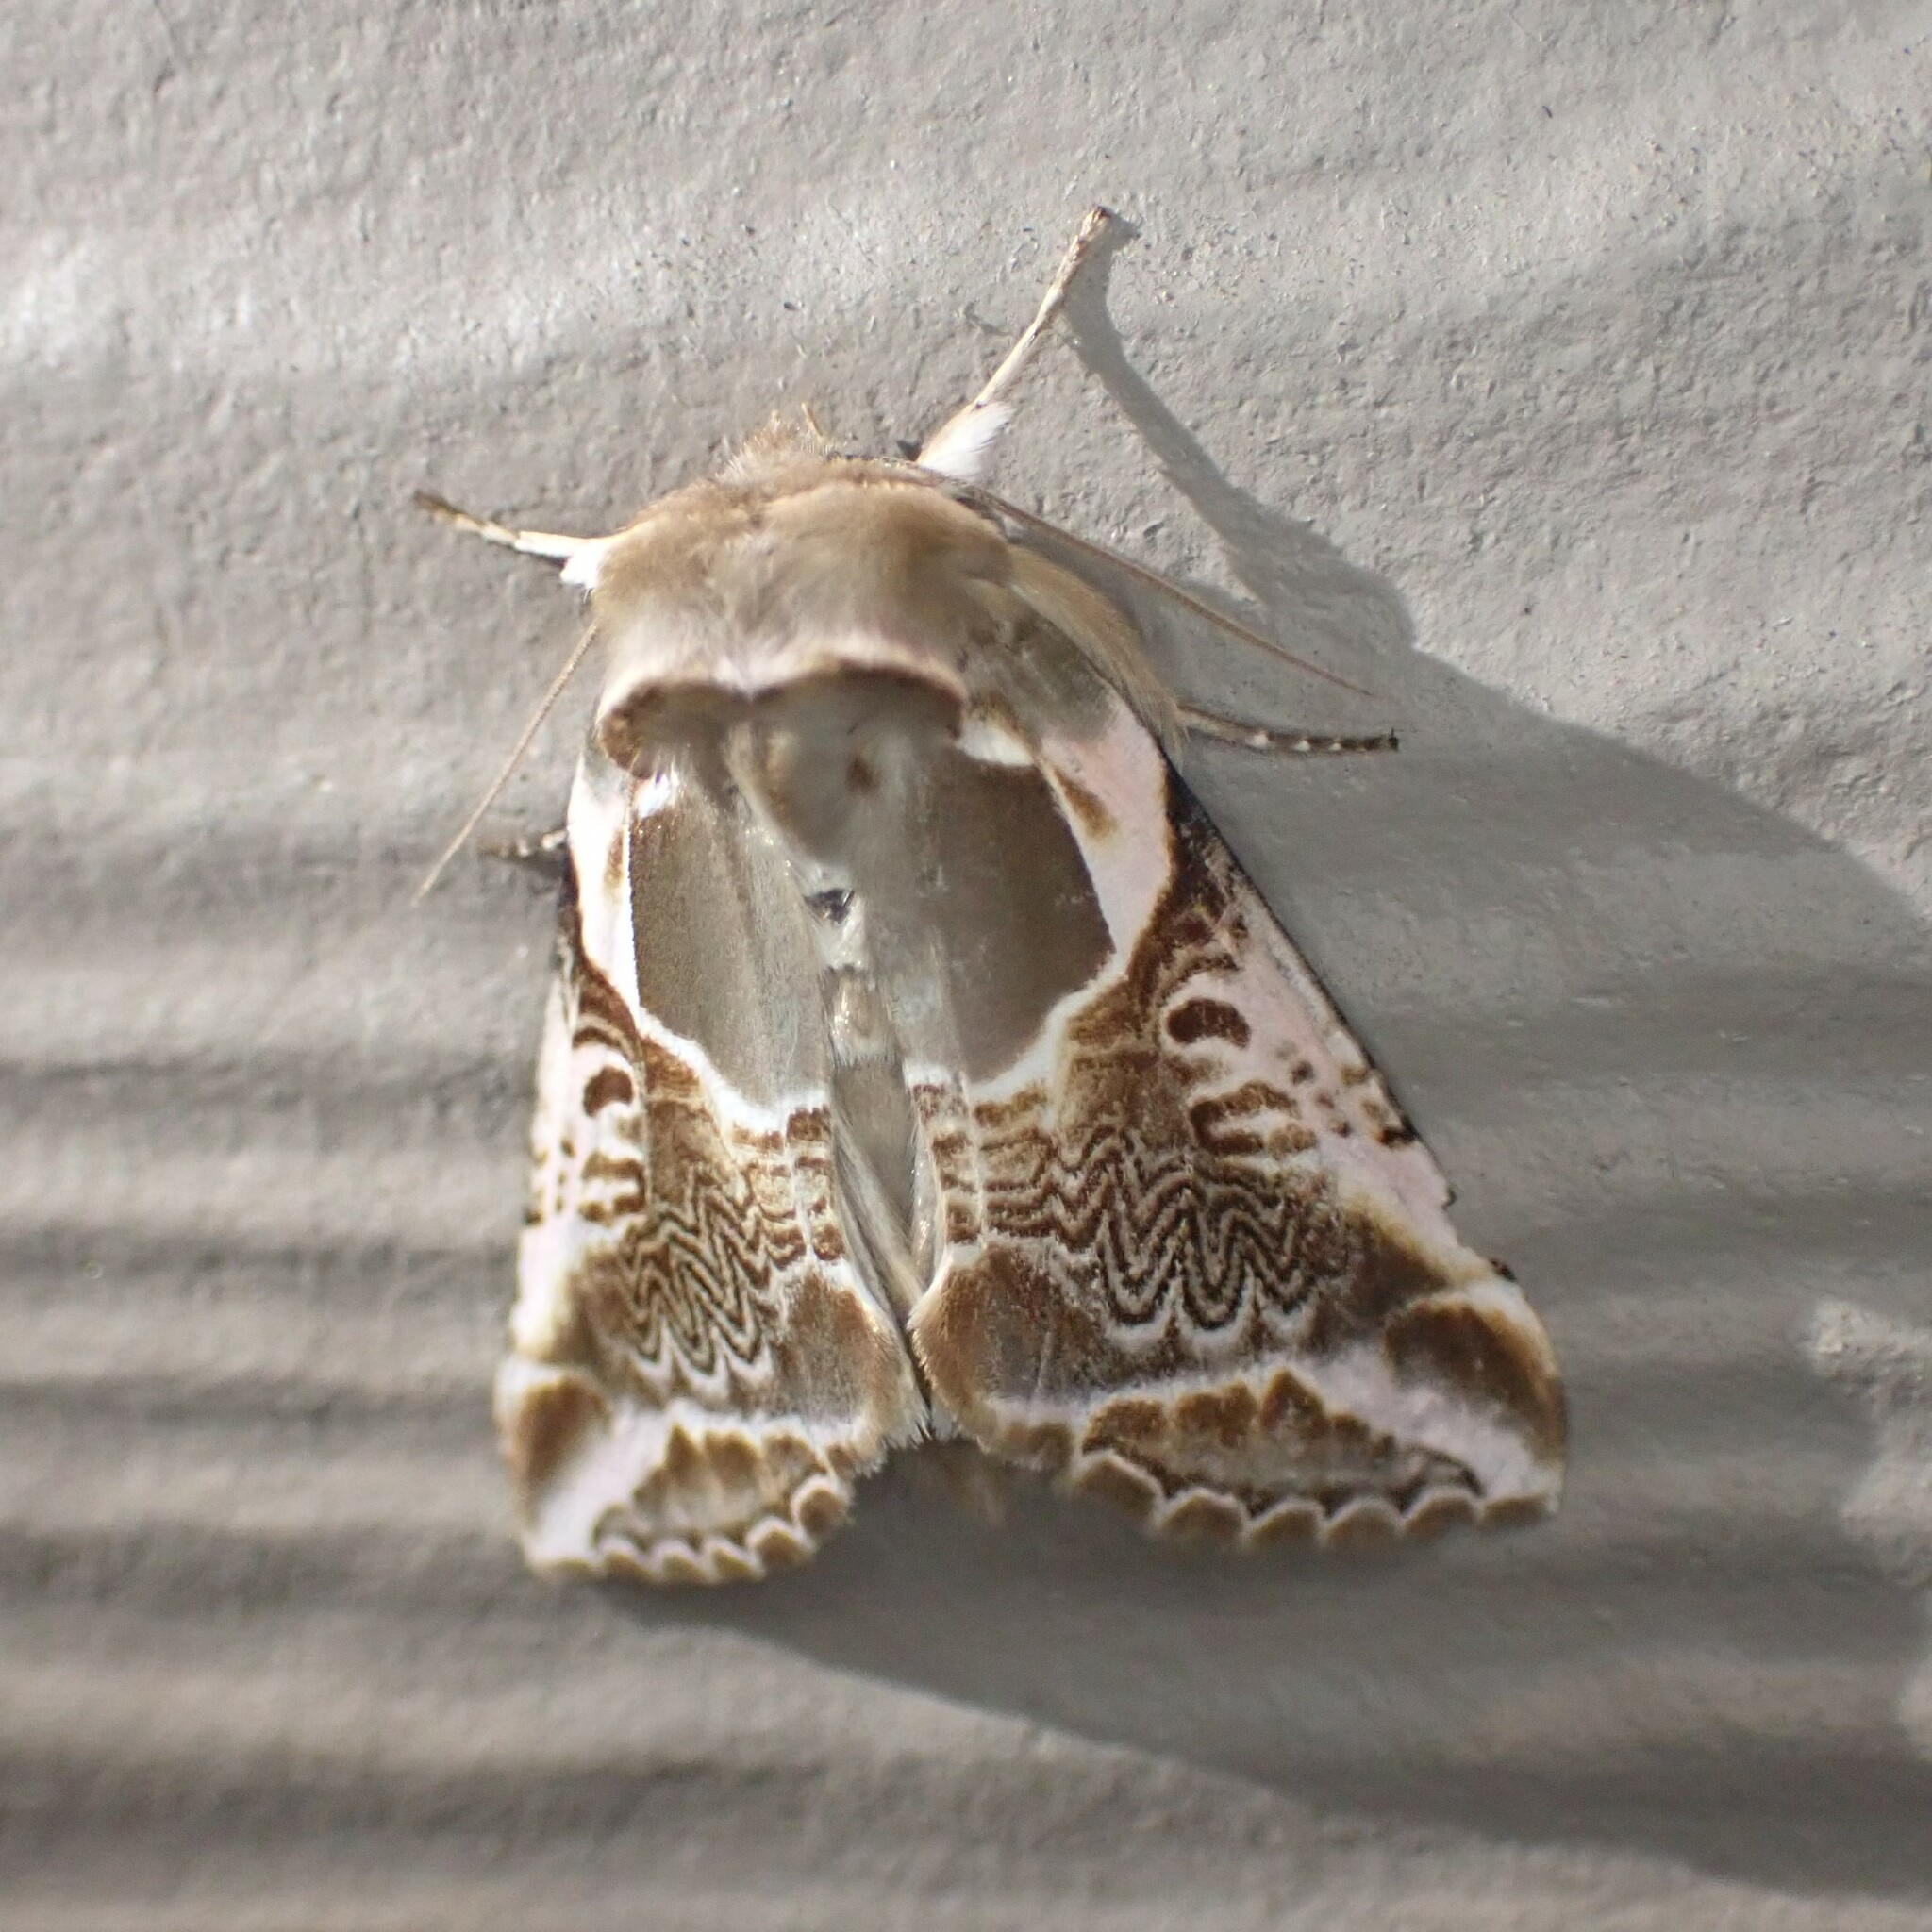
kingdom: Animalia
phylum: Arthropoda
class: Insecta
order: Lepidoptera
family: Drepanidae
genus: Habrosyne
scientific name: Habrosyne scripta
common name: Lettered habrosyne moth
